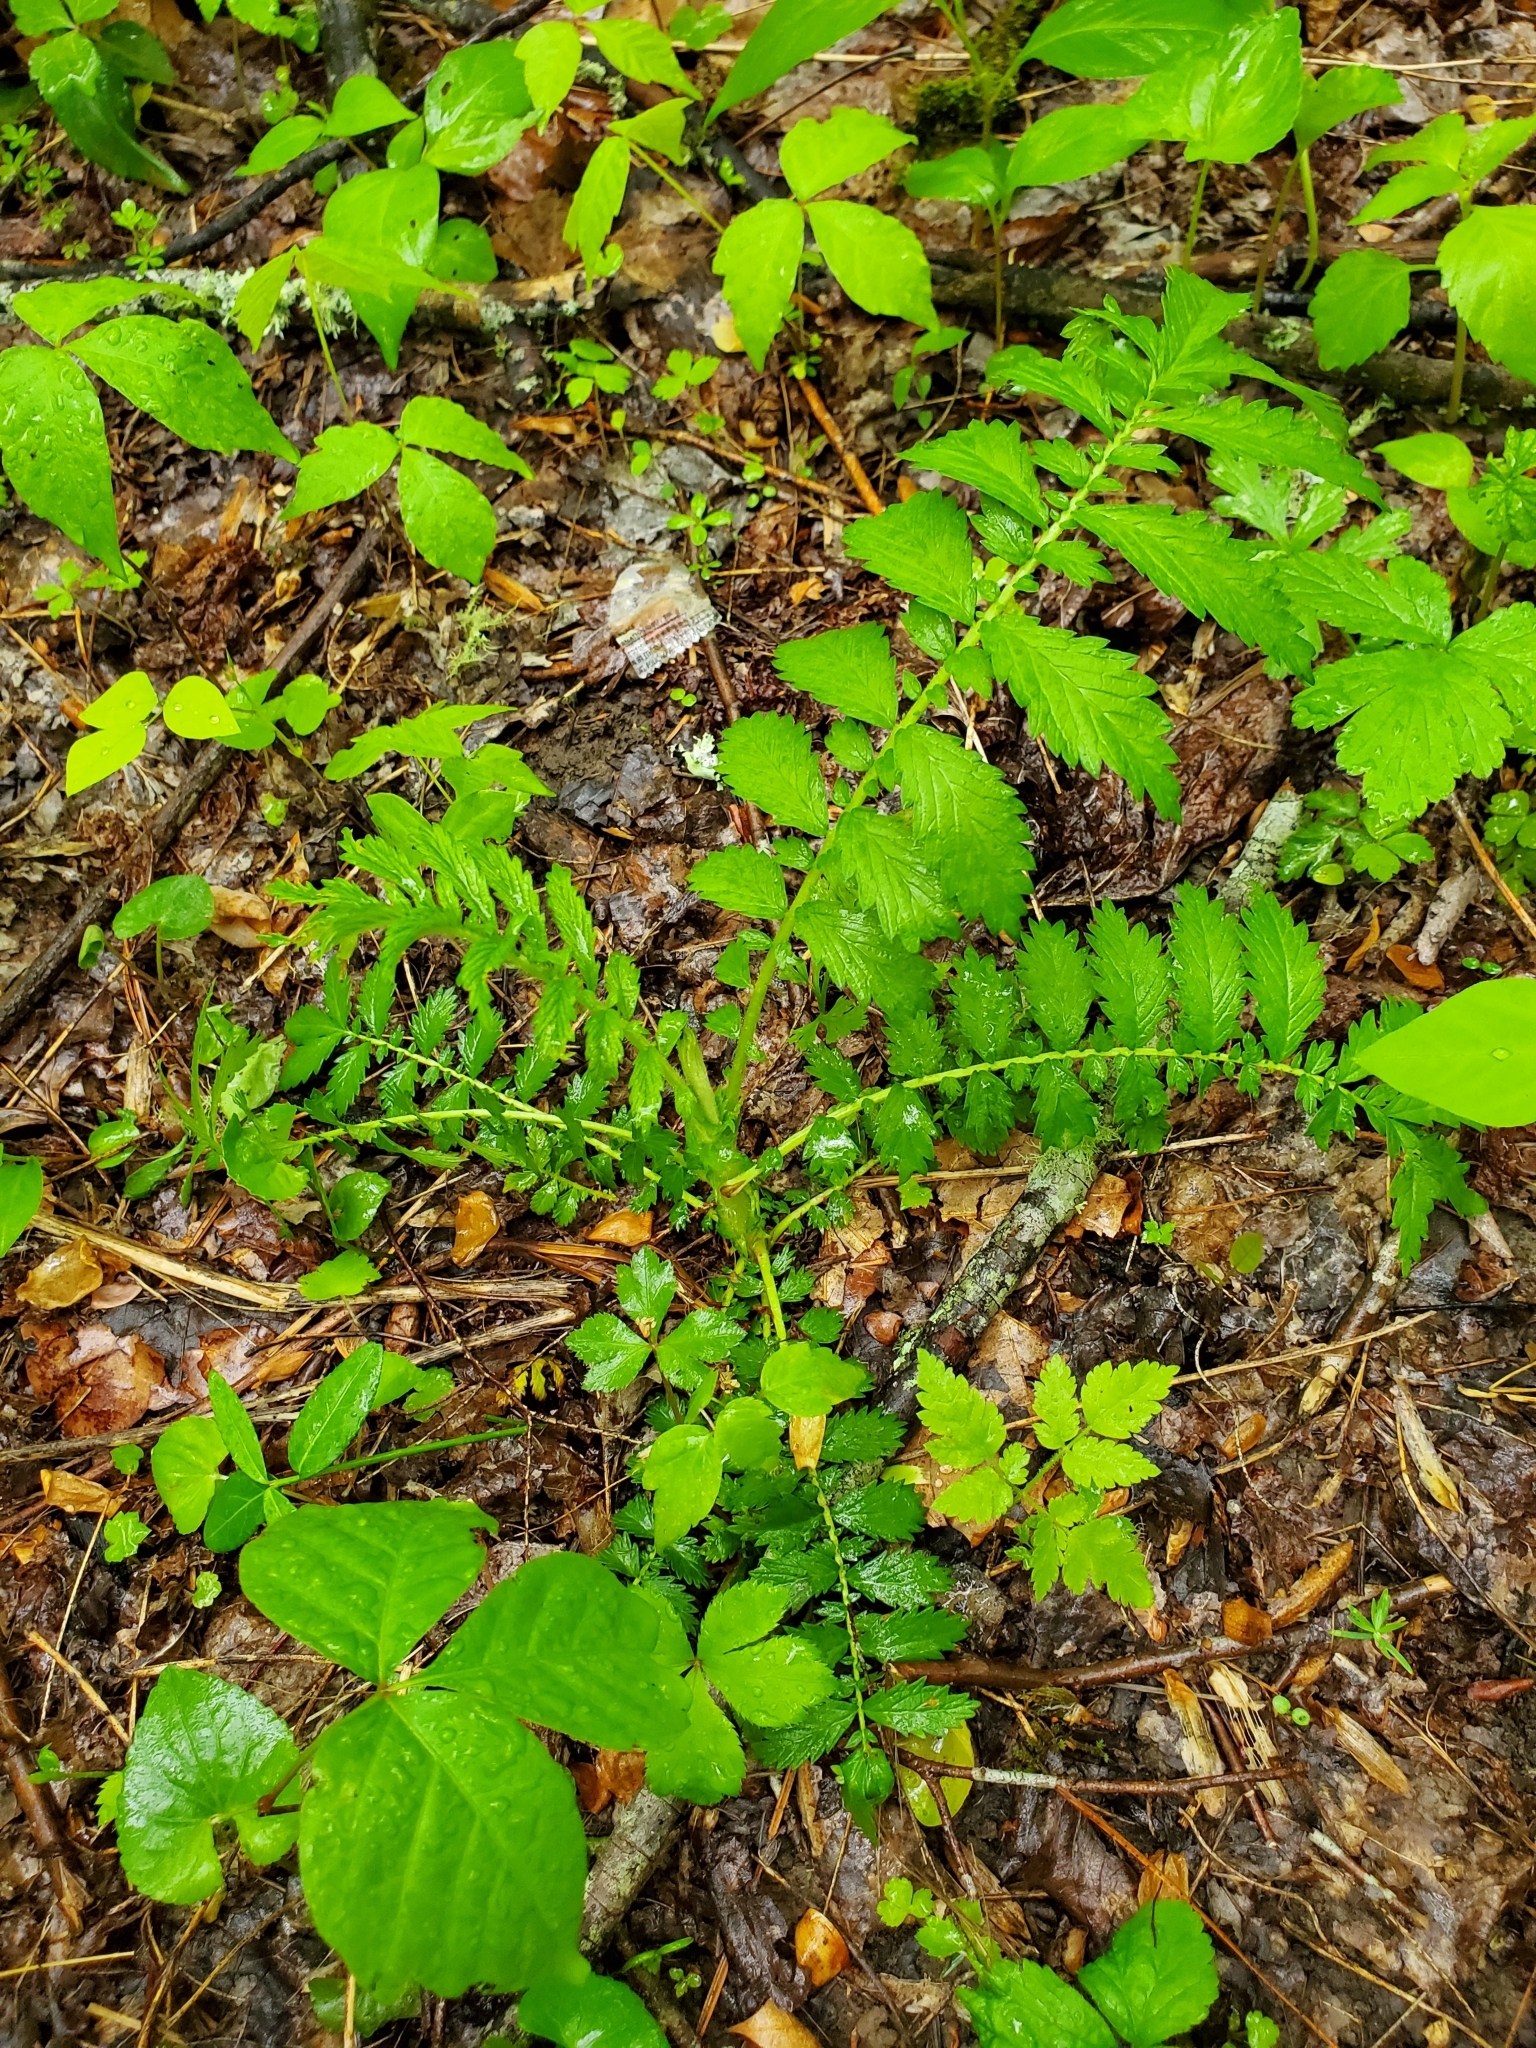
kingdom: Plantae
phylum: Tracheophyta
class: Magnoliopsida
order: Rosales
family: Rosaceae
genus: Agrimonia
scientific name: Agrimonia parviflora
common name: Harvest-lice
